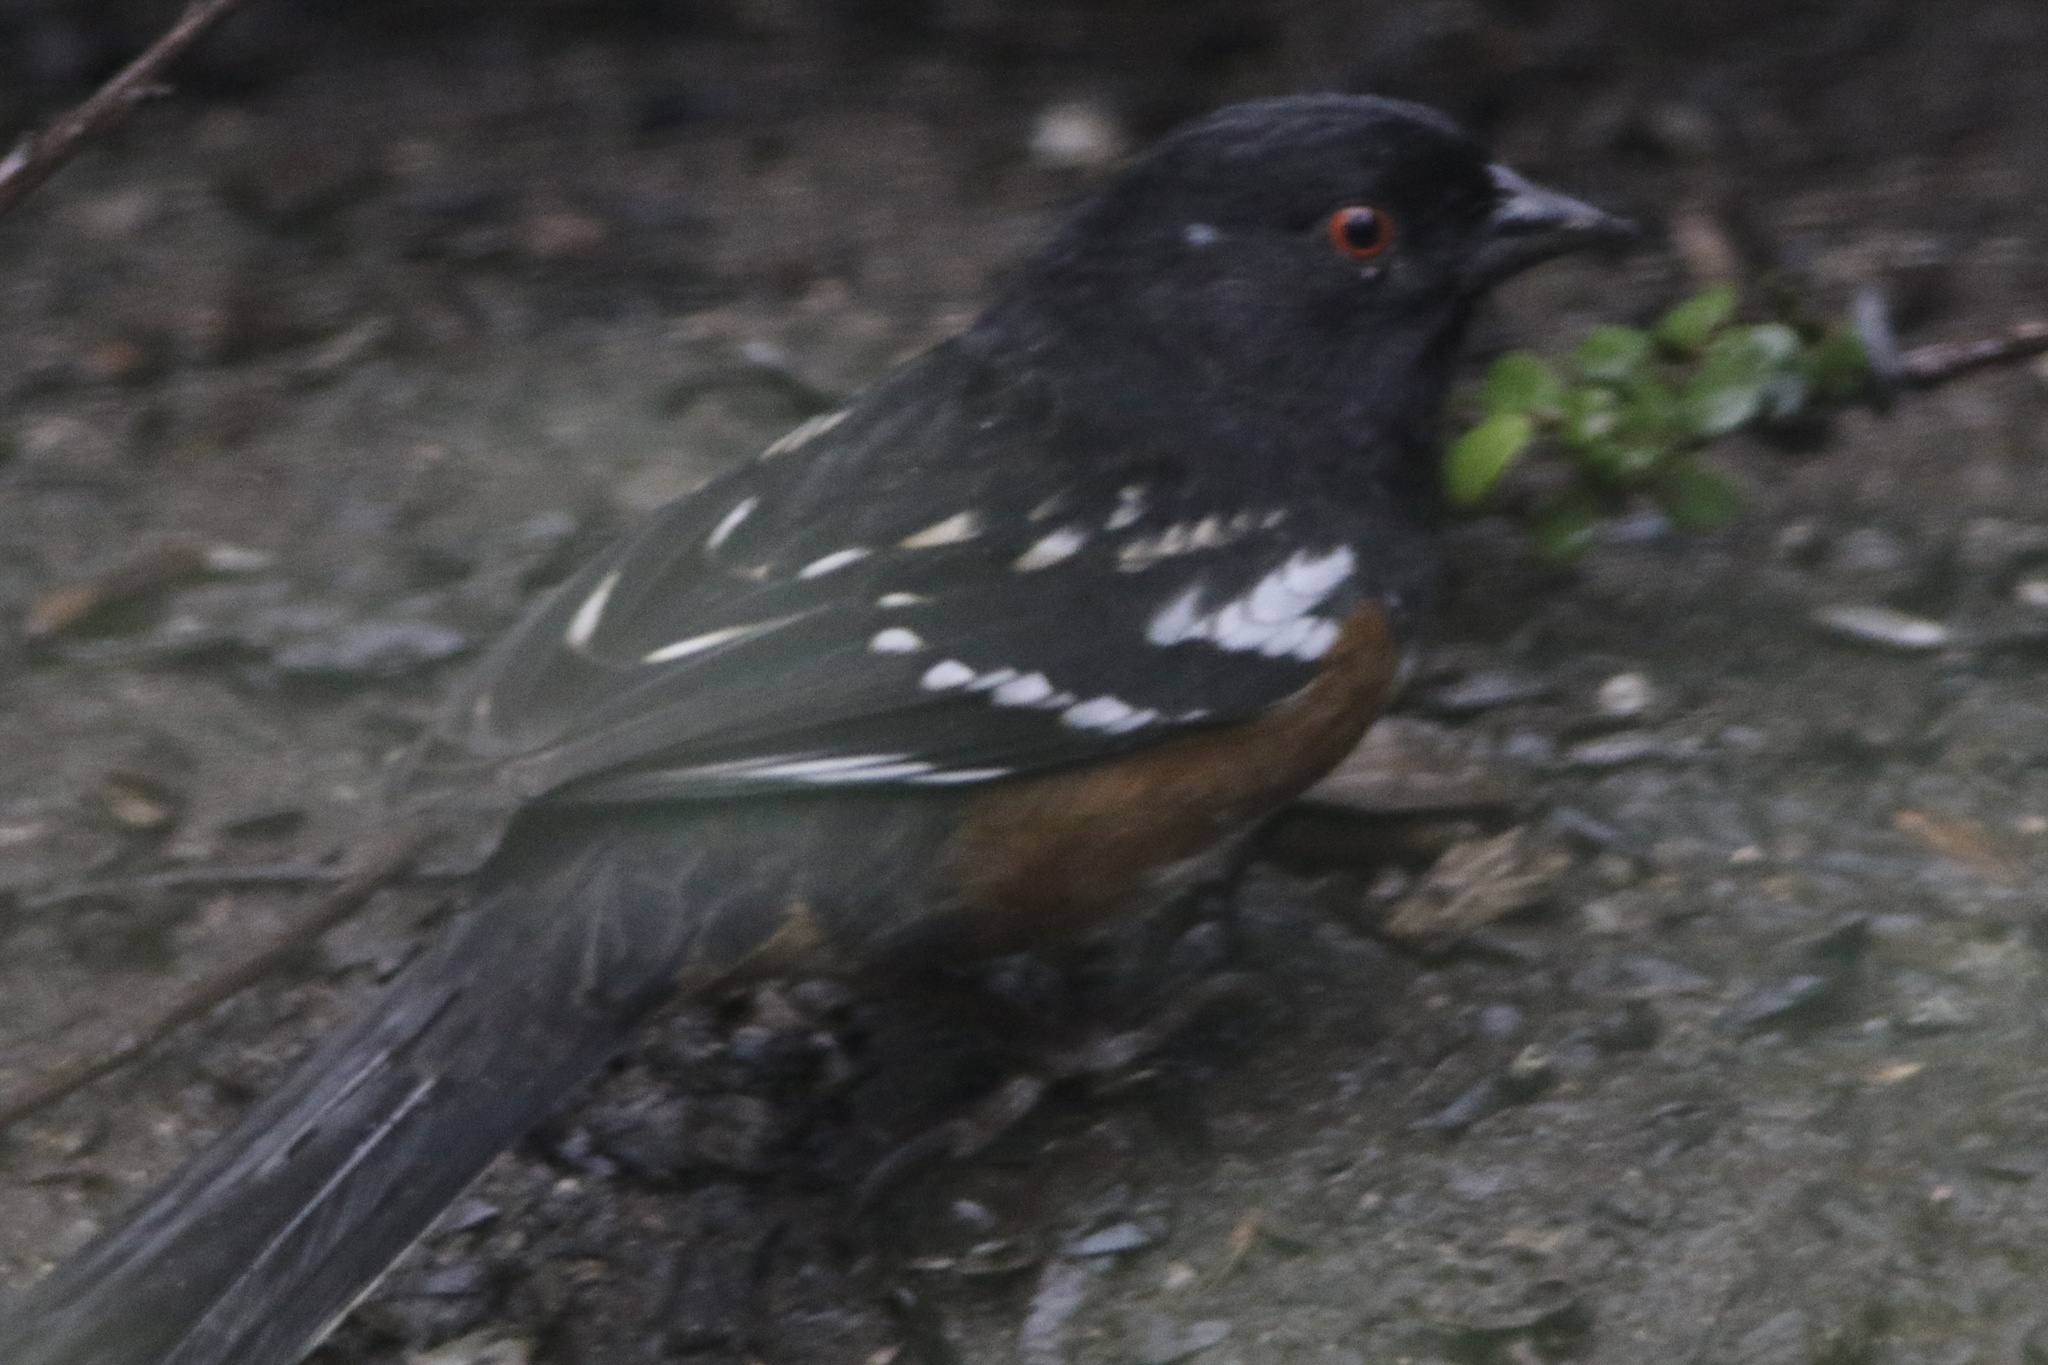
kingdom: Animalia
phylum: Chordata
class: Aves
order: Passeriformes
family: Passerellidae
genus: Pipilo
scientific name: Pipilo maculatus
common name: Spotted towhee
